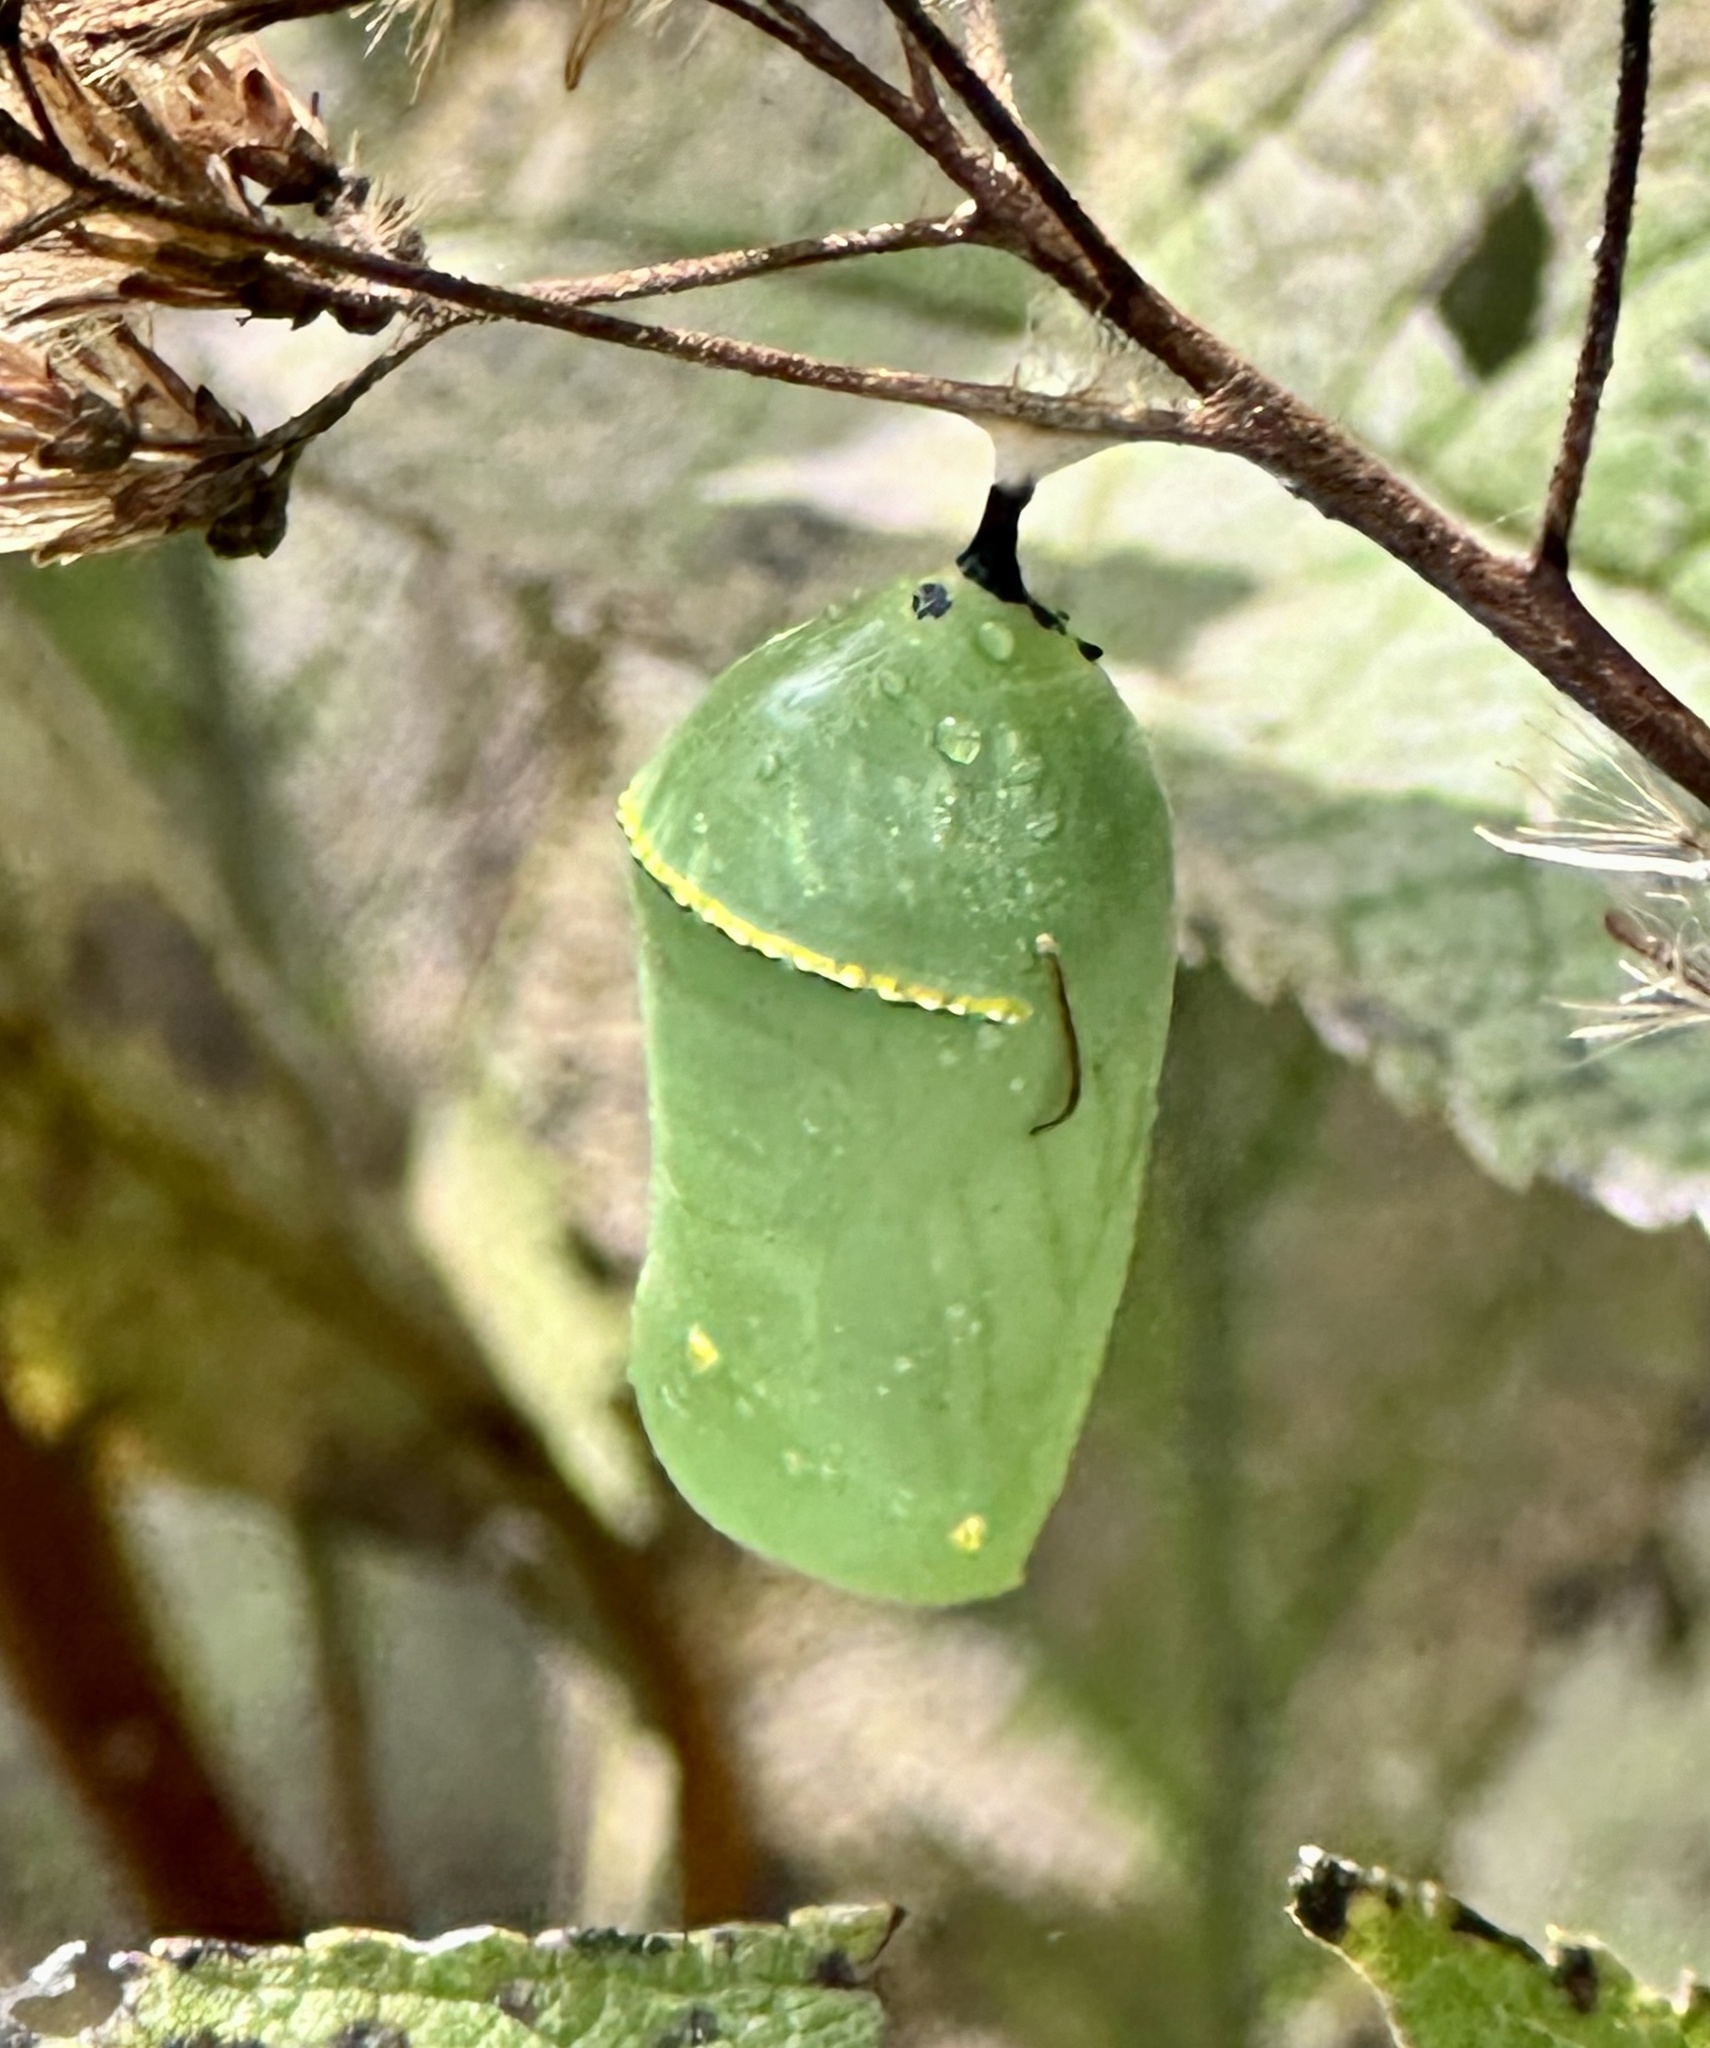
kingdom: Animalia
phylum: Arthropoda
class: Insecta
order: Lepidoptera
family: Nymphalidae
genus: Danaus
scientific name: Danaus plexippus
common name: Monarch
